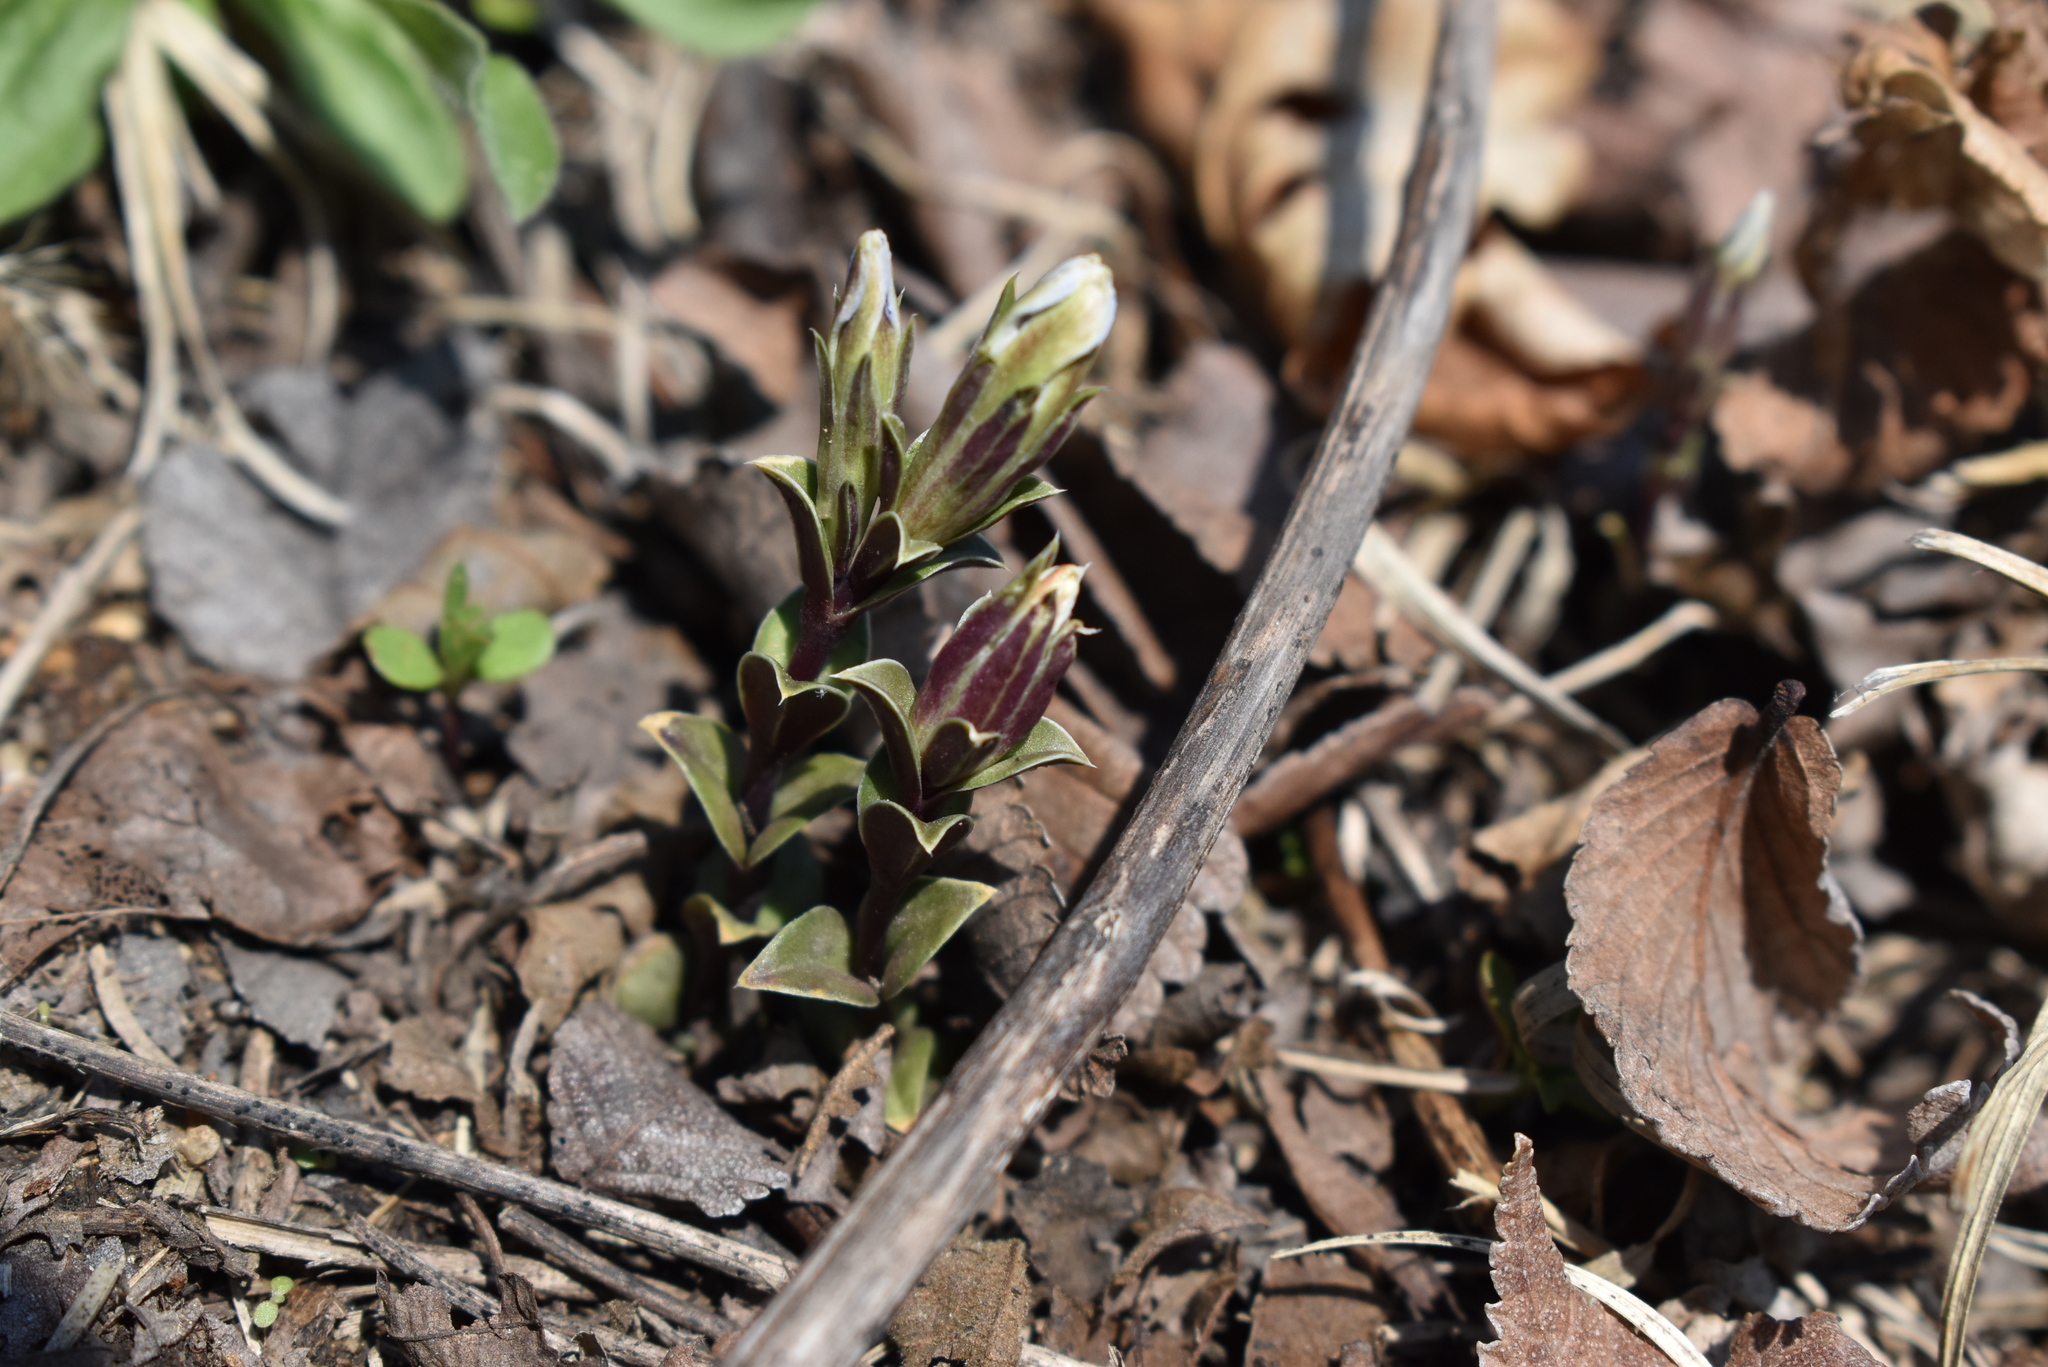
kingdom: Plantae
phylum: Tracheophyta
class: Magnoliopsida
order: Gentianales
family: Gentianaceae
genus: Gentiana
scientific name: Gentiana zollingeri
